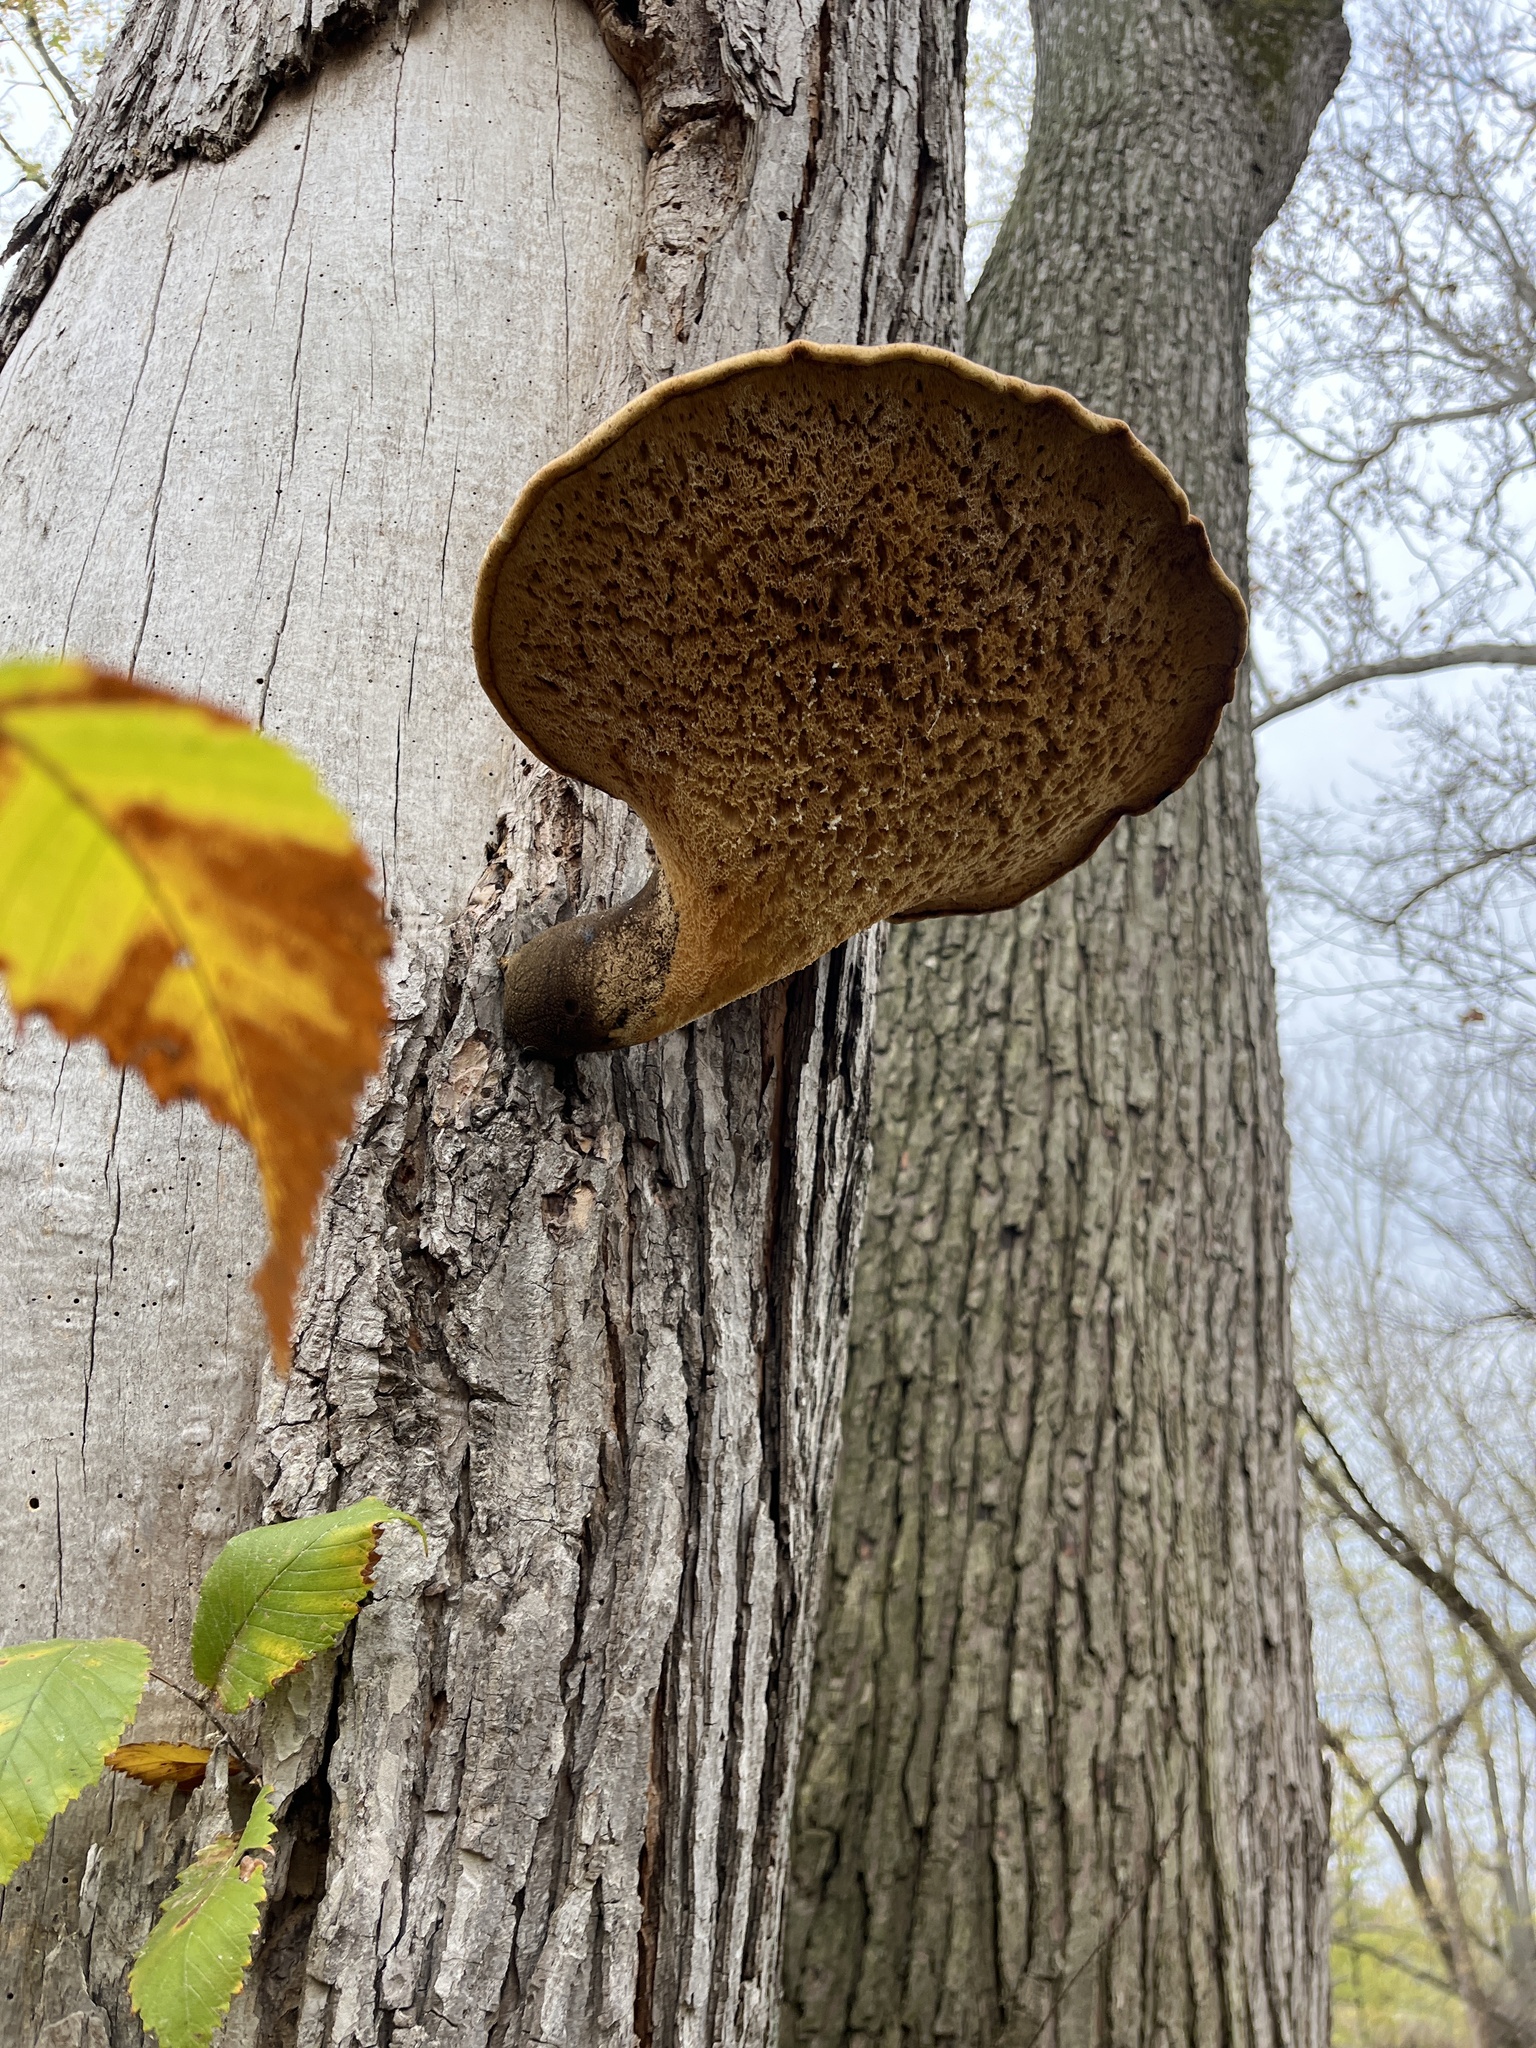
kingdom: Fungi
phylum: Basidiomycota
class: Agaricomycetes
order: Polyporales
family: Polyporaceae
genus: Cerioporus
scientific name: Cerioporus squamosus
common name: Dryad's saddle
